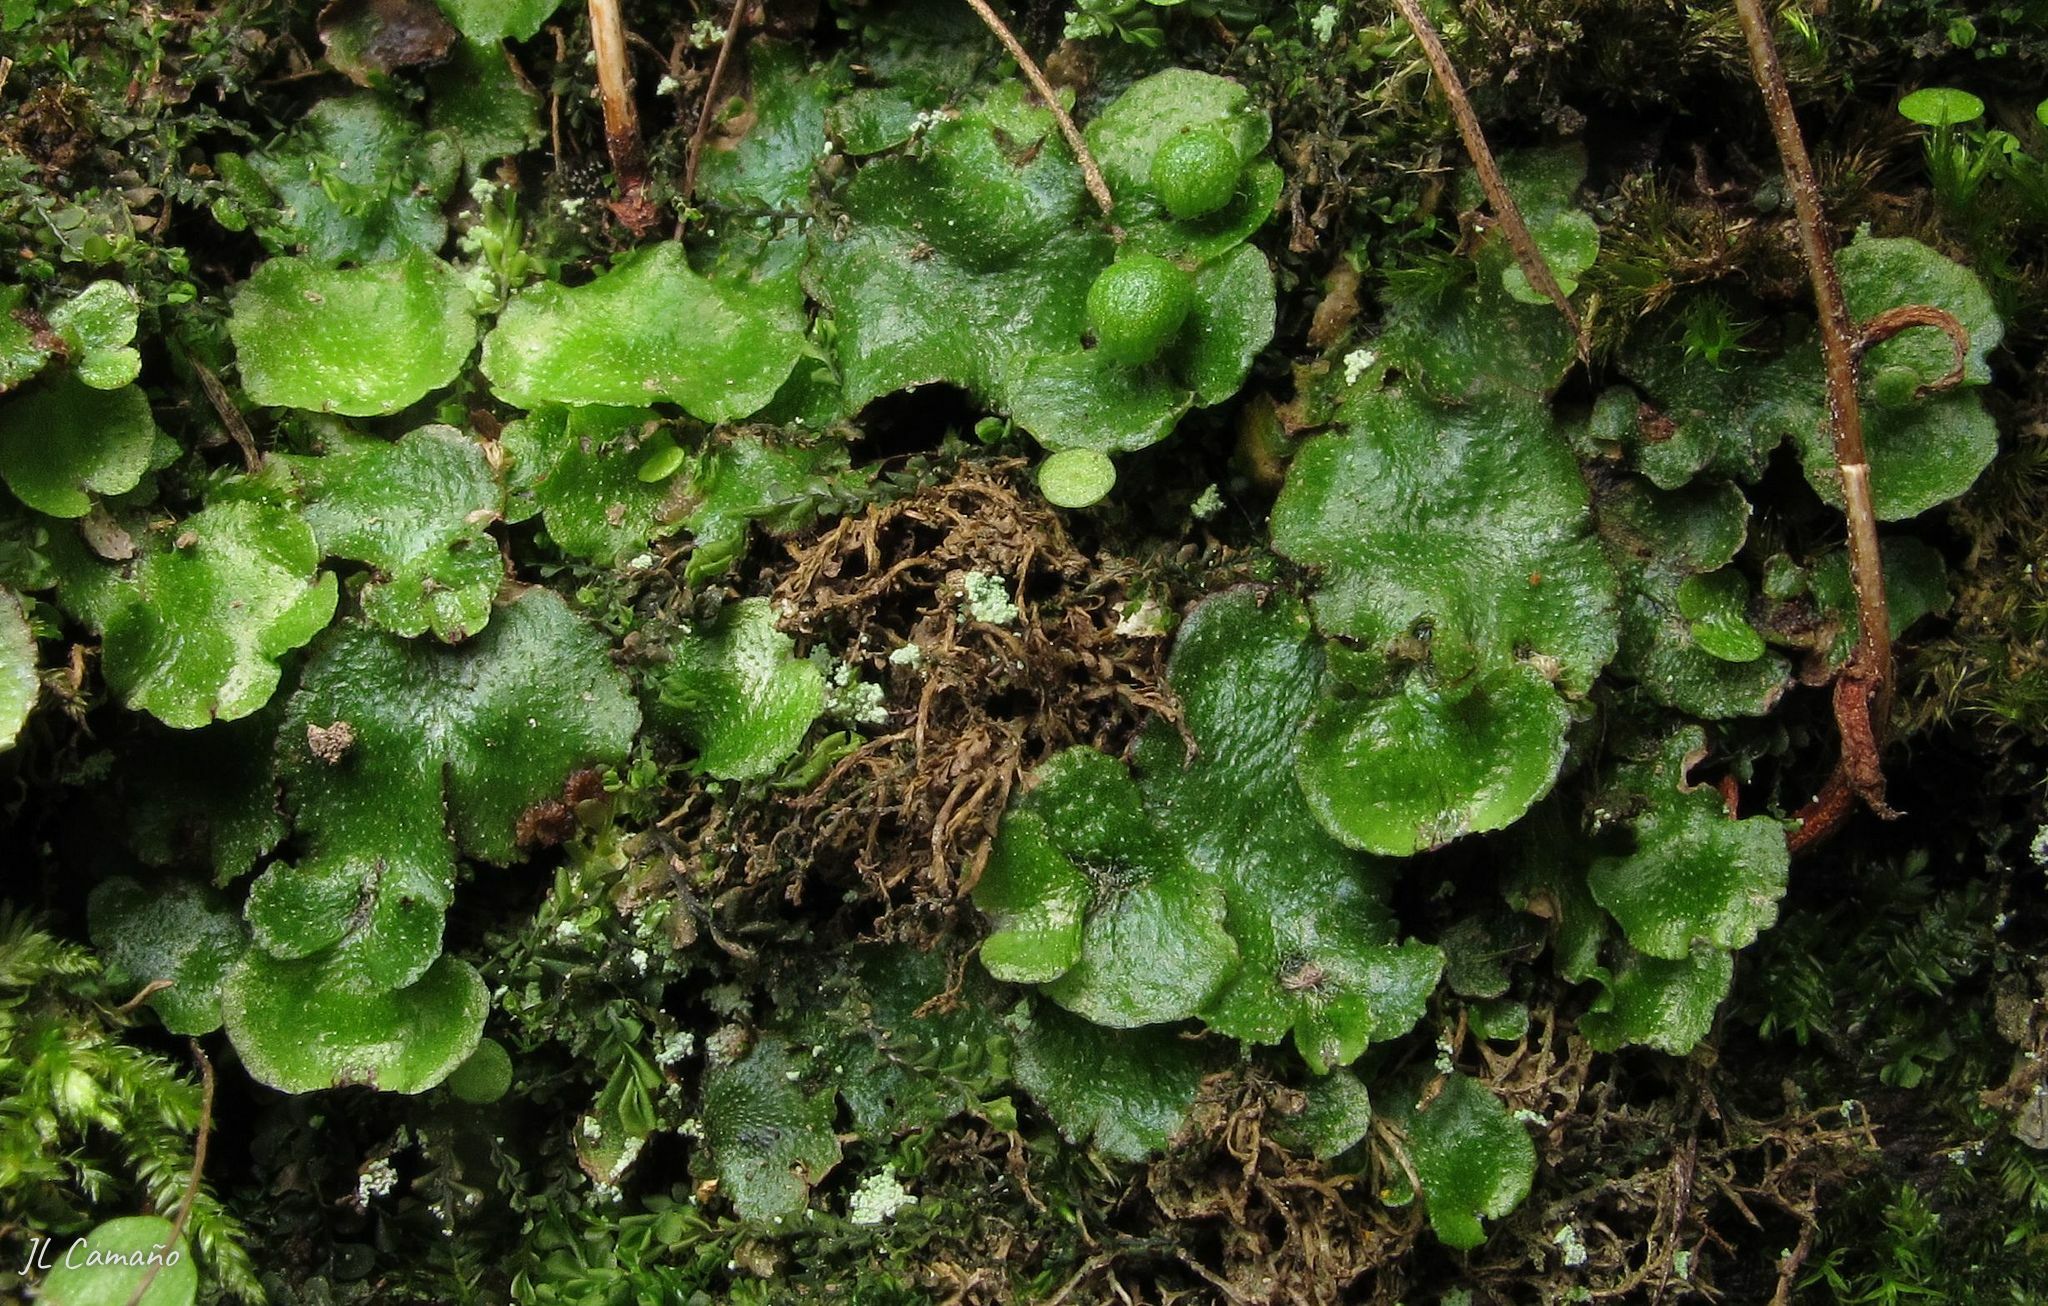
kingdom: Plantae
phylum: Marchantiophyta
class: Marchantiopsida
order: Marchantiales
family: Aytoniaceae
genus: Reboulia
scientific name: Reboulia hemisphaerica
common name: Purple-margined liverwort
